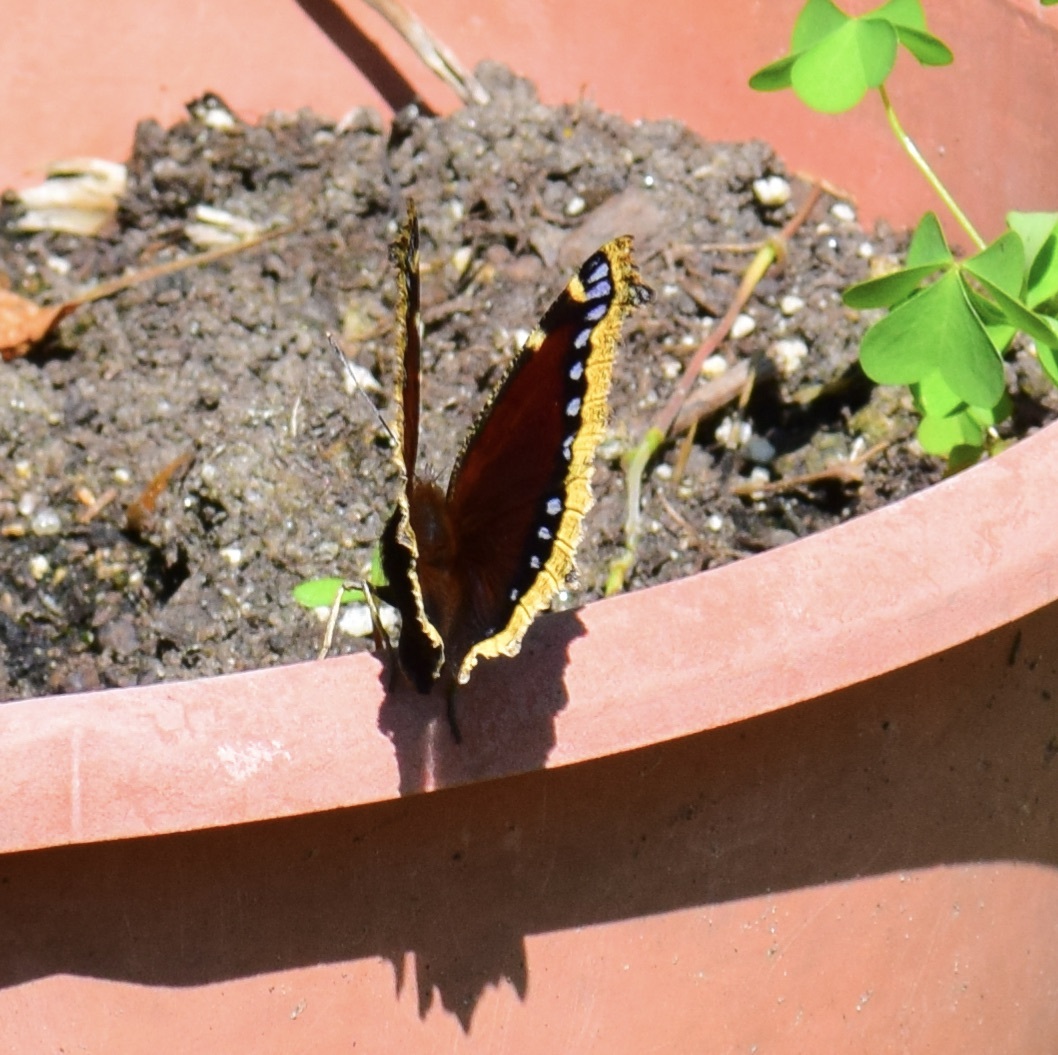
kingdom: Animalia
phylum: Arthropoda
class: Insecta
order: Lepidoptera
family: Nymphalidae
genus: Nymphalis
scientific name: Nymphalis antiopa
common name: Camberwell beauty
